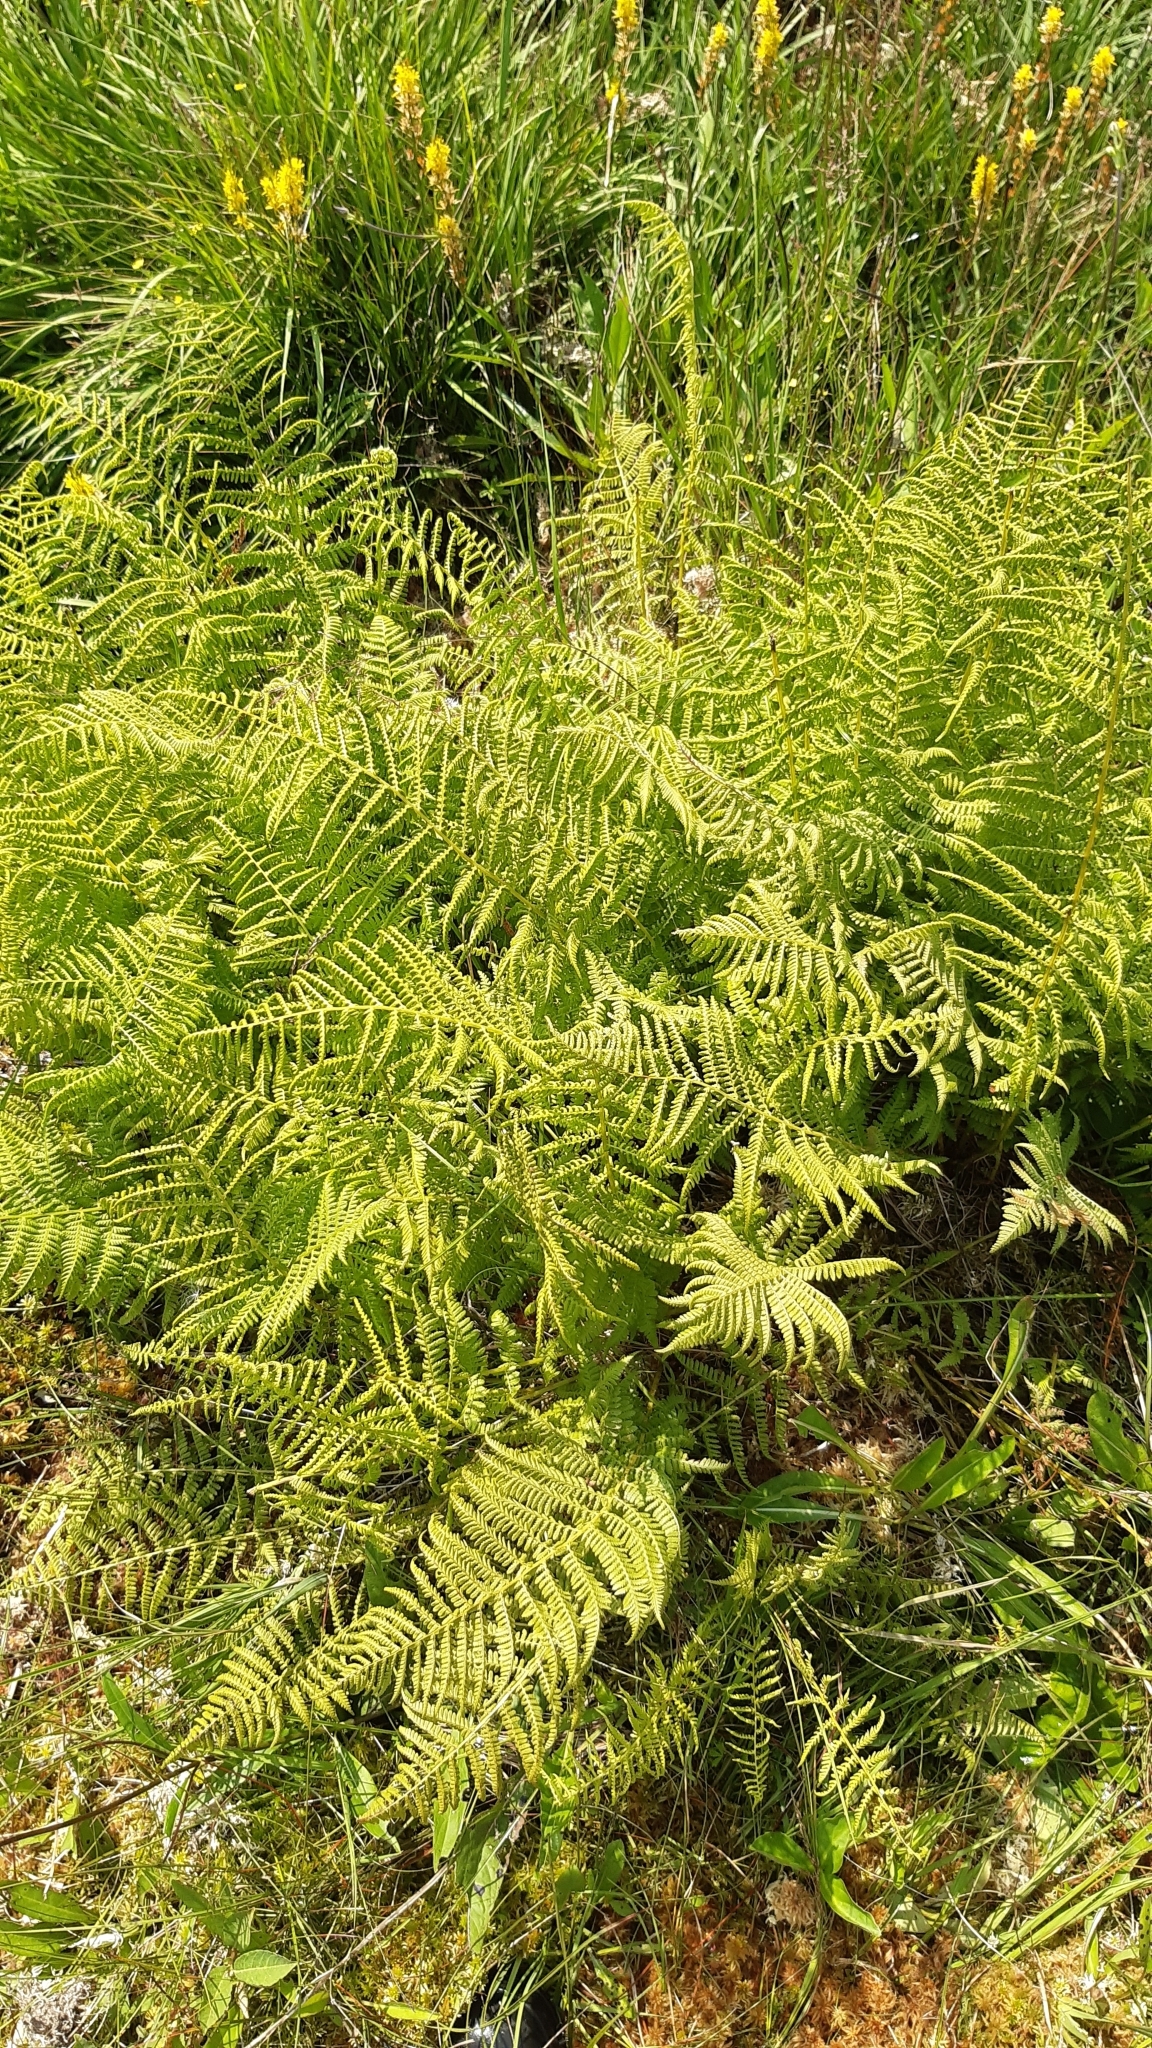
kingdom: Plantae
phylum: Tracheophyta
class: Polypodiopsida
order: Polypodiales
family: Athyriaceae
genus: Athyrium
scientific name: Athyrium filix-femina
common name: Lady fern
